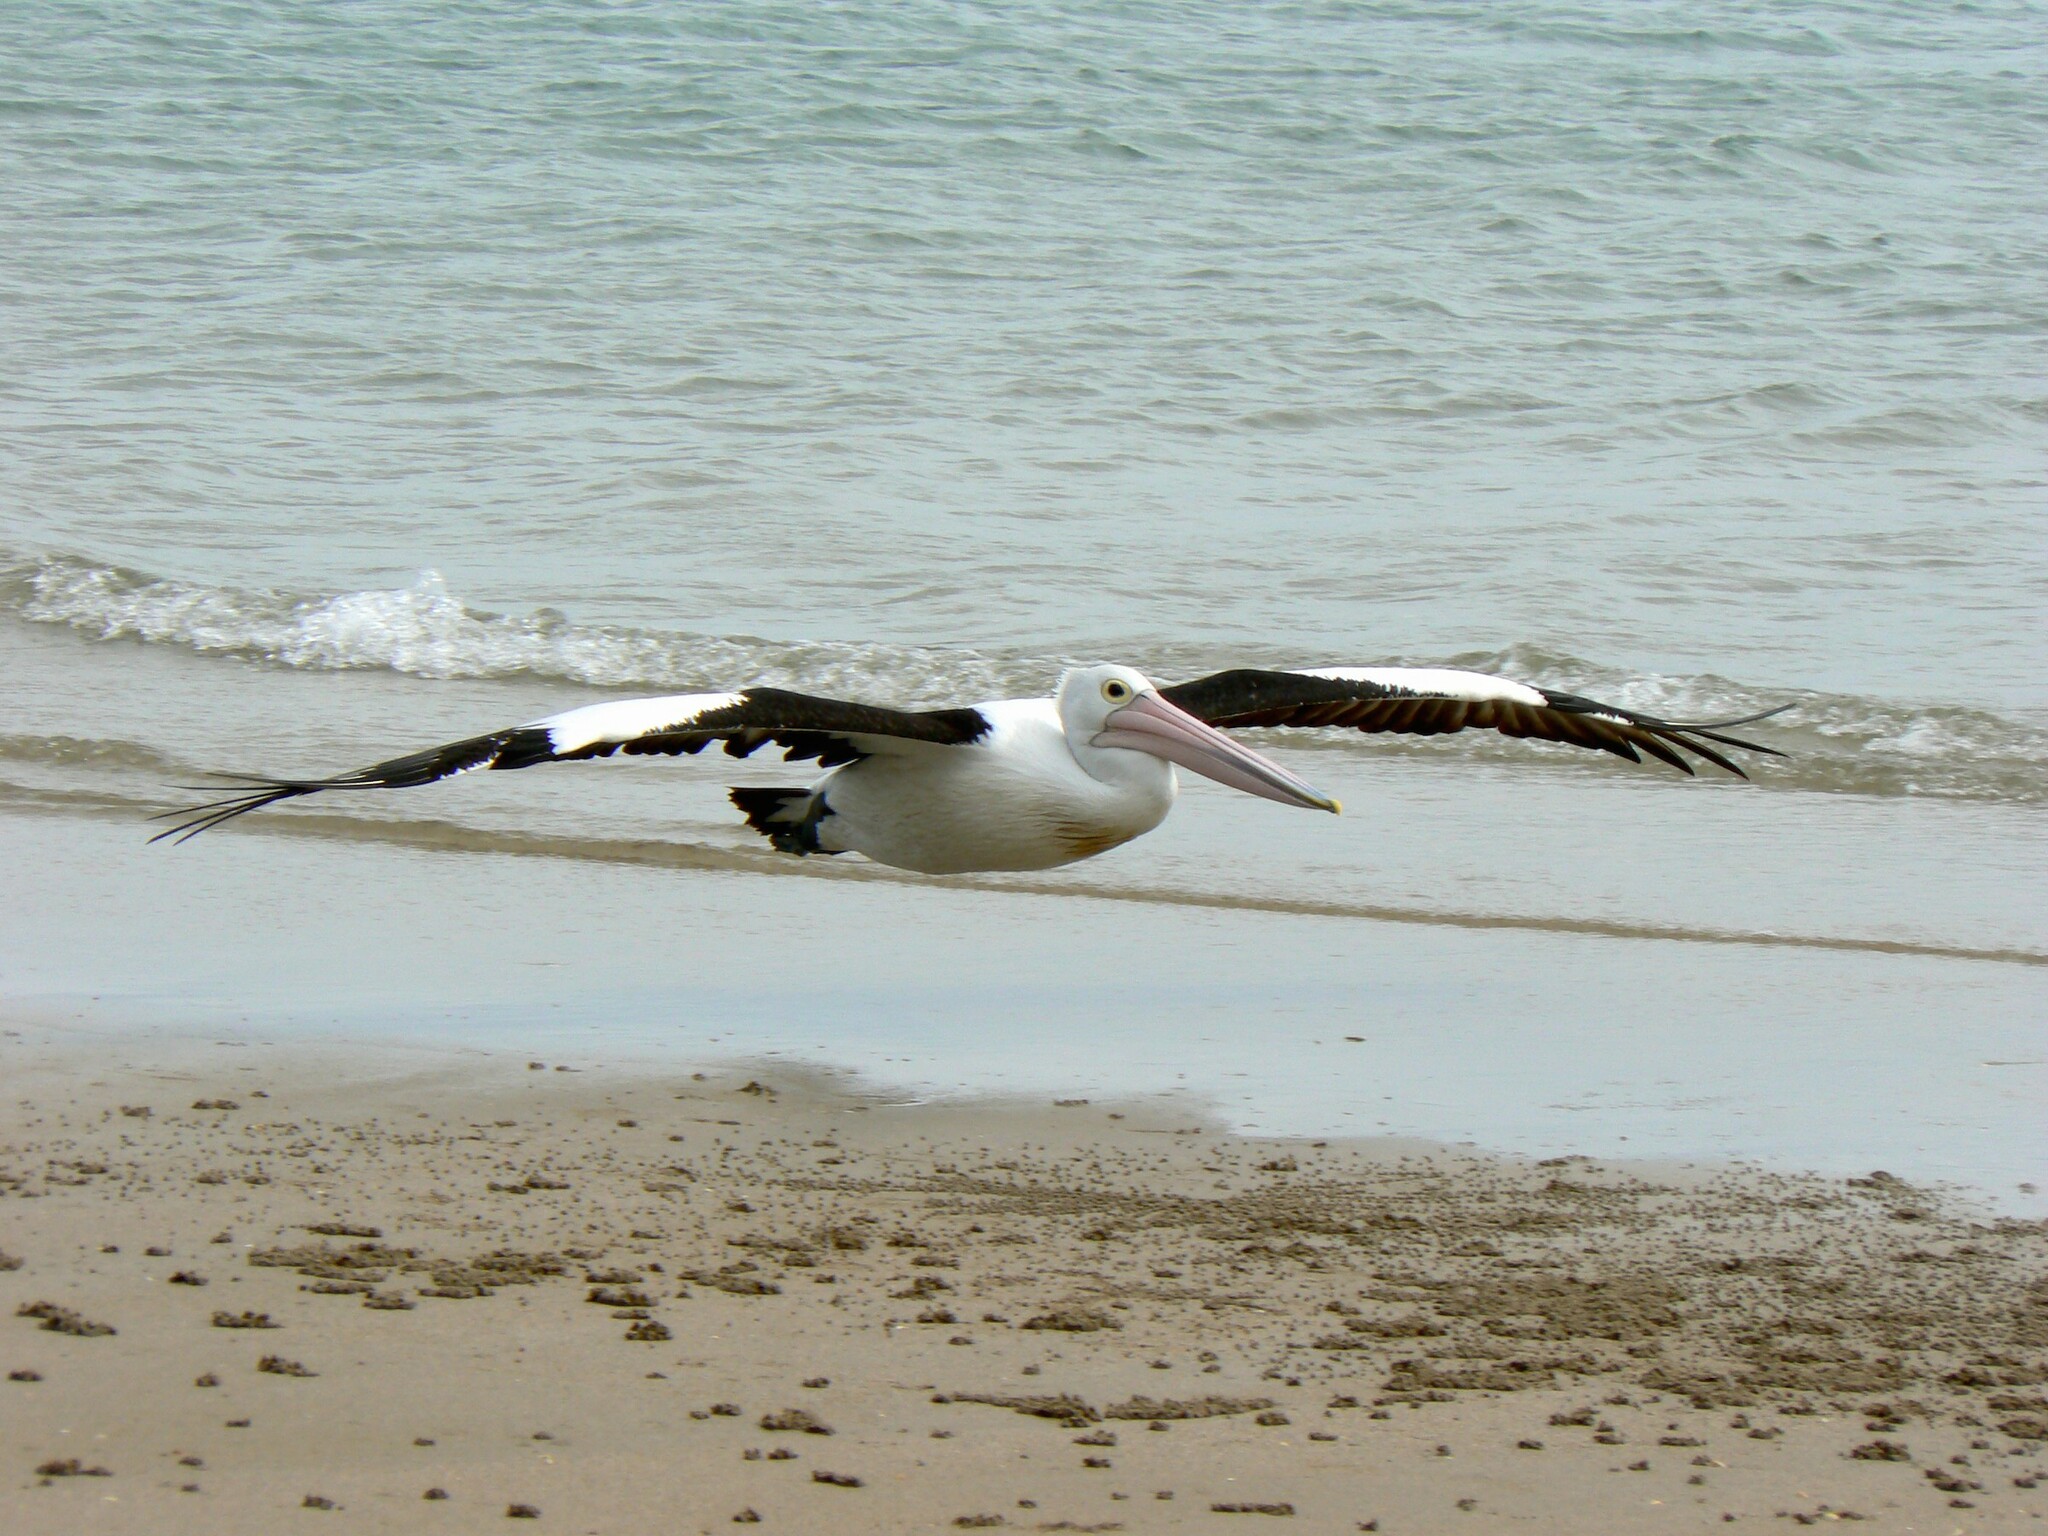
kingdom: Animalia
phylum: Chordata
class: Aves
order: Pelecaniformes
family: Pelecanidae
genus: Pelecanus
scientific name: Pelecanus conspicillatus
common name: Australian pelican
